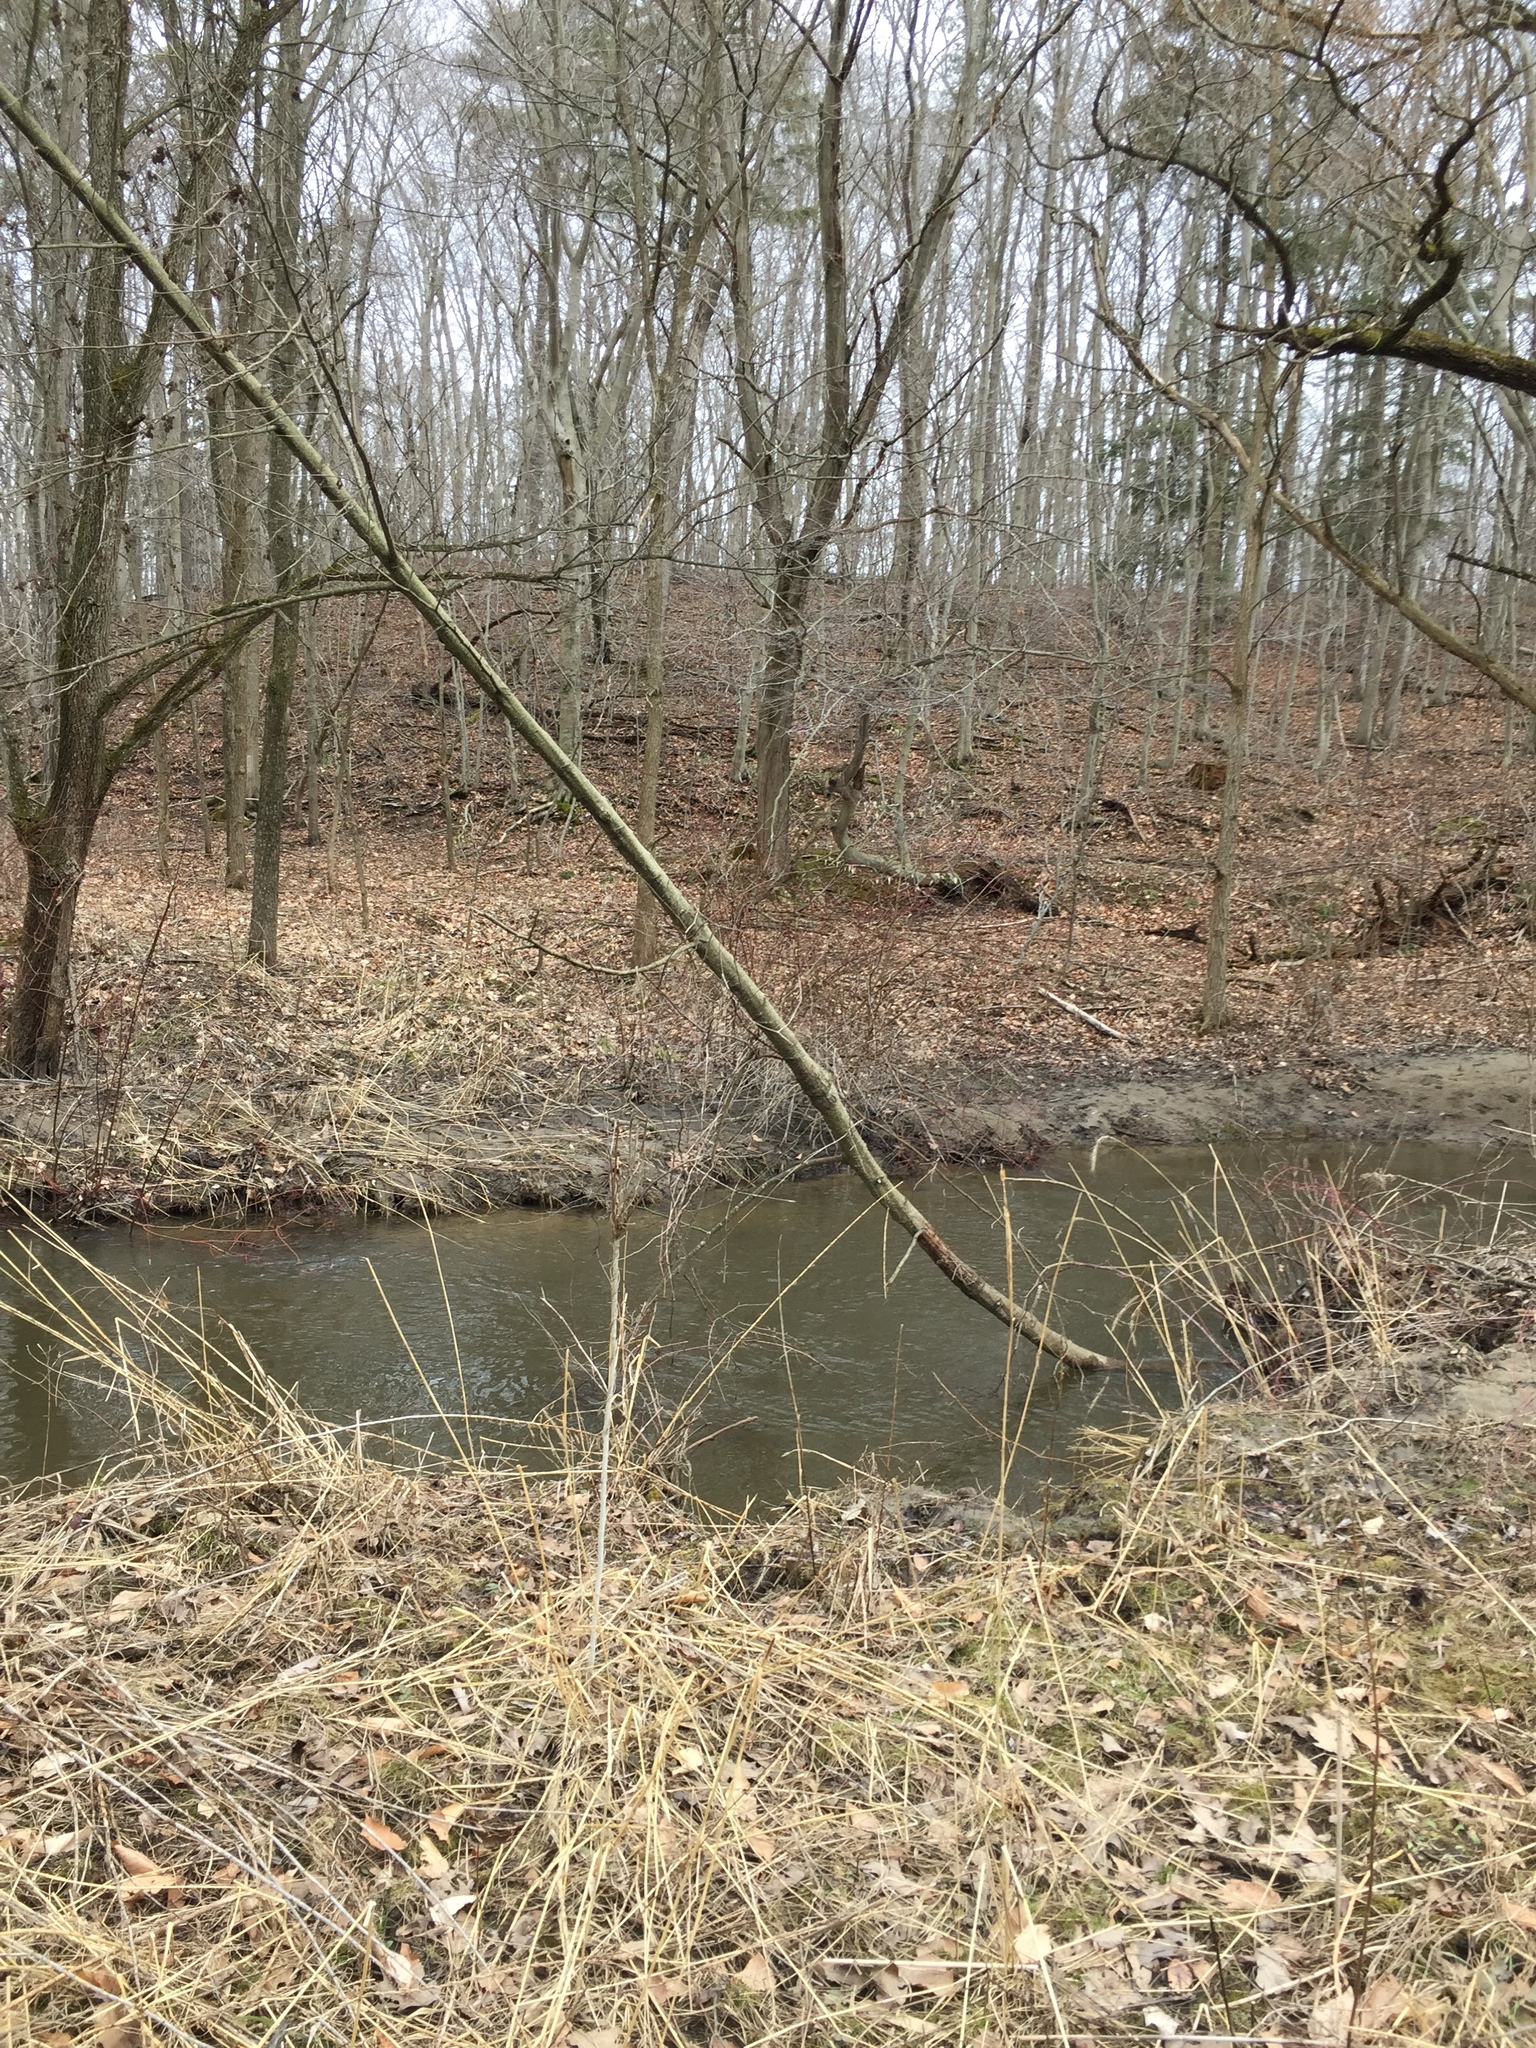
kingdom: Plantae
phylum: Tracheophyta
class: Magnoliopsida
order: Fagales
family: Betulaceae
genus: Alnus
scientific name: Alnus glutinosa
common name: Black alder
